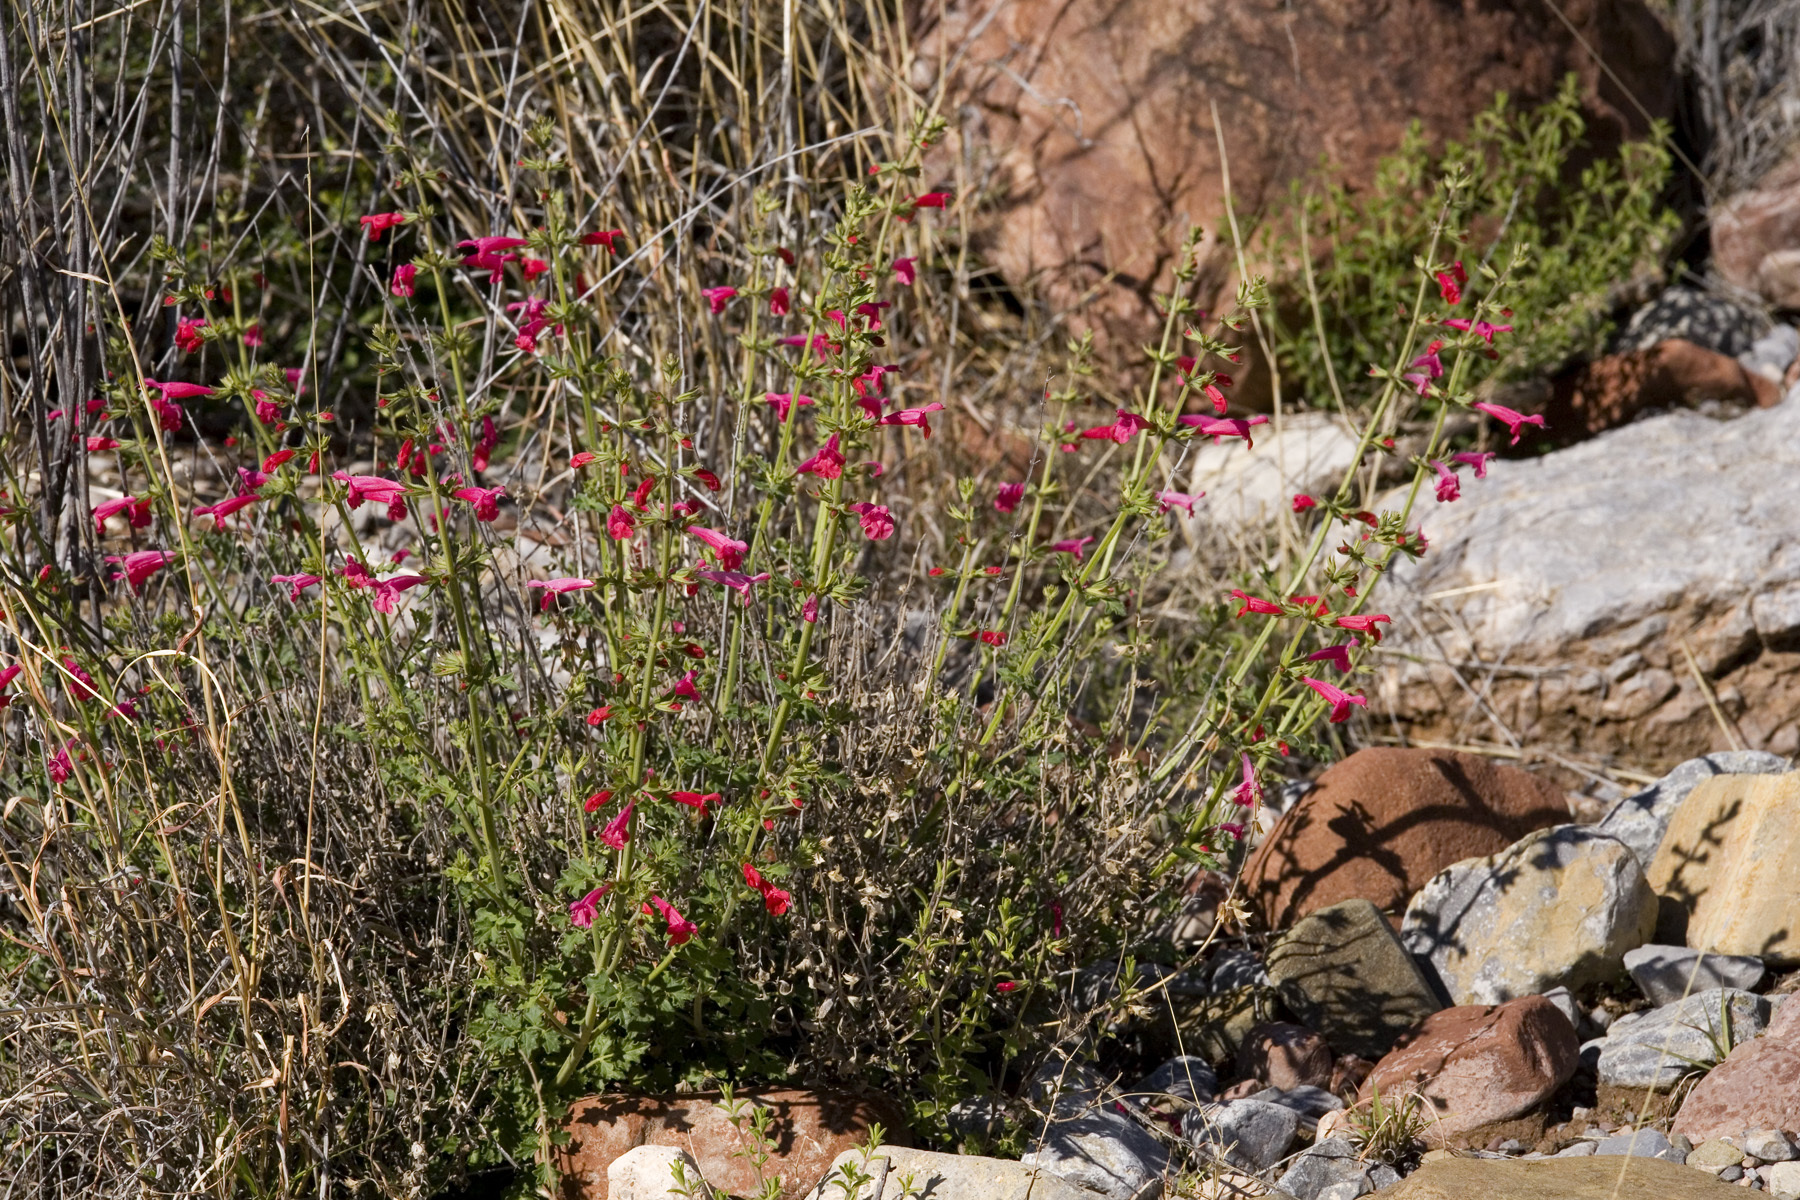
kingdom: Plantae
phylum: Tracheophyta
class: Magnoliopsida
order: Lamiales
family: Lamiaceae
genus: Salvia
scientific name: Salvia henryi
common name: Henry's sage
